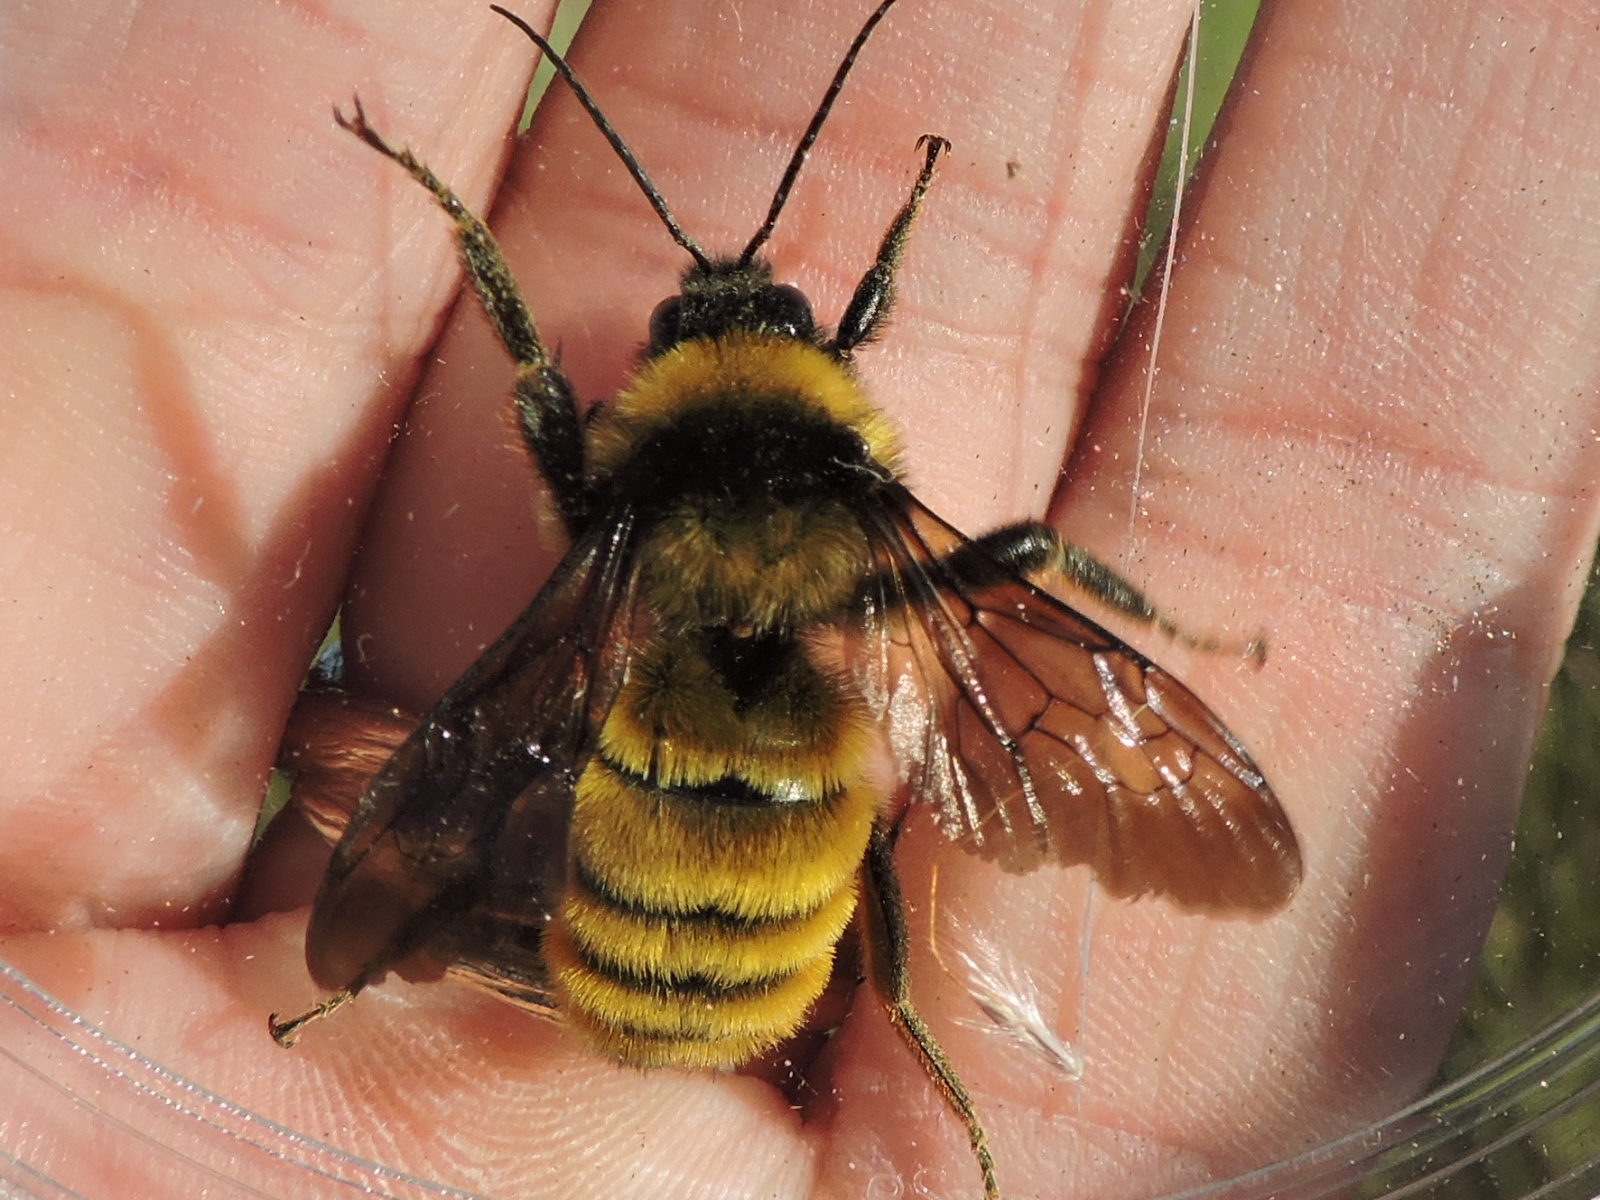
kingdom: Animalia
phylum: Arthropoda
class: Insecta
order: Hymenoptera
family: Apidae
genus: Bombus
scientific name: Bombus pensylvanicus
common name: Bumble bee
